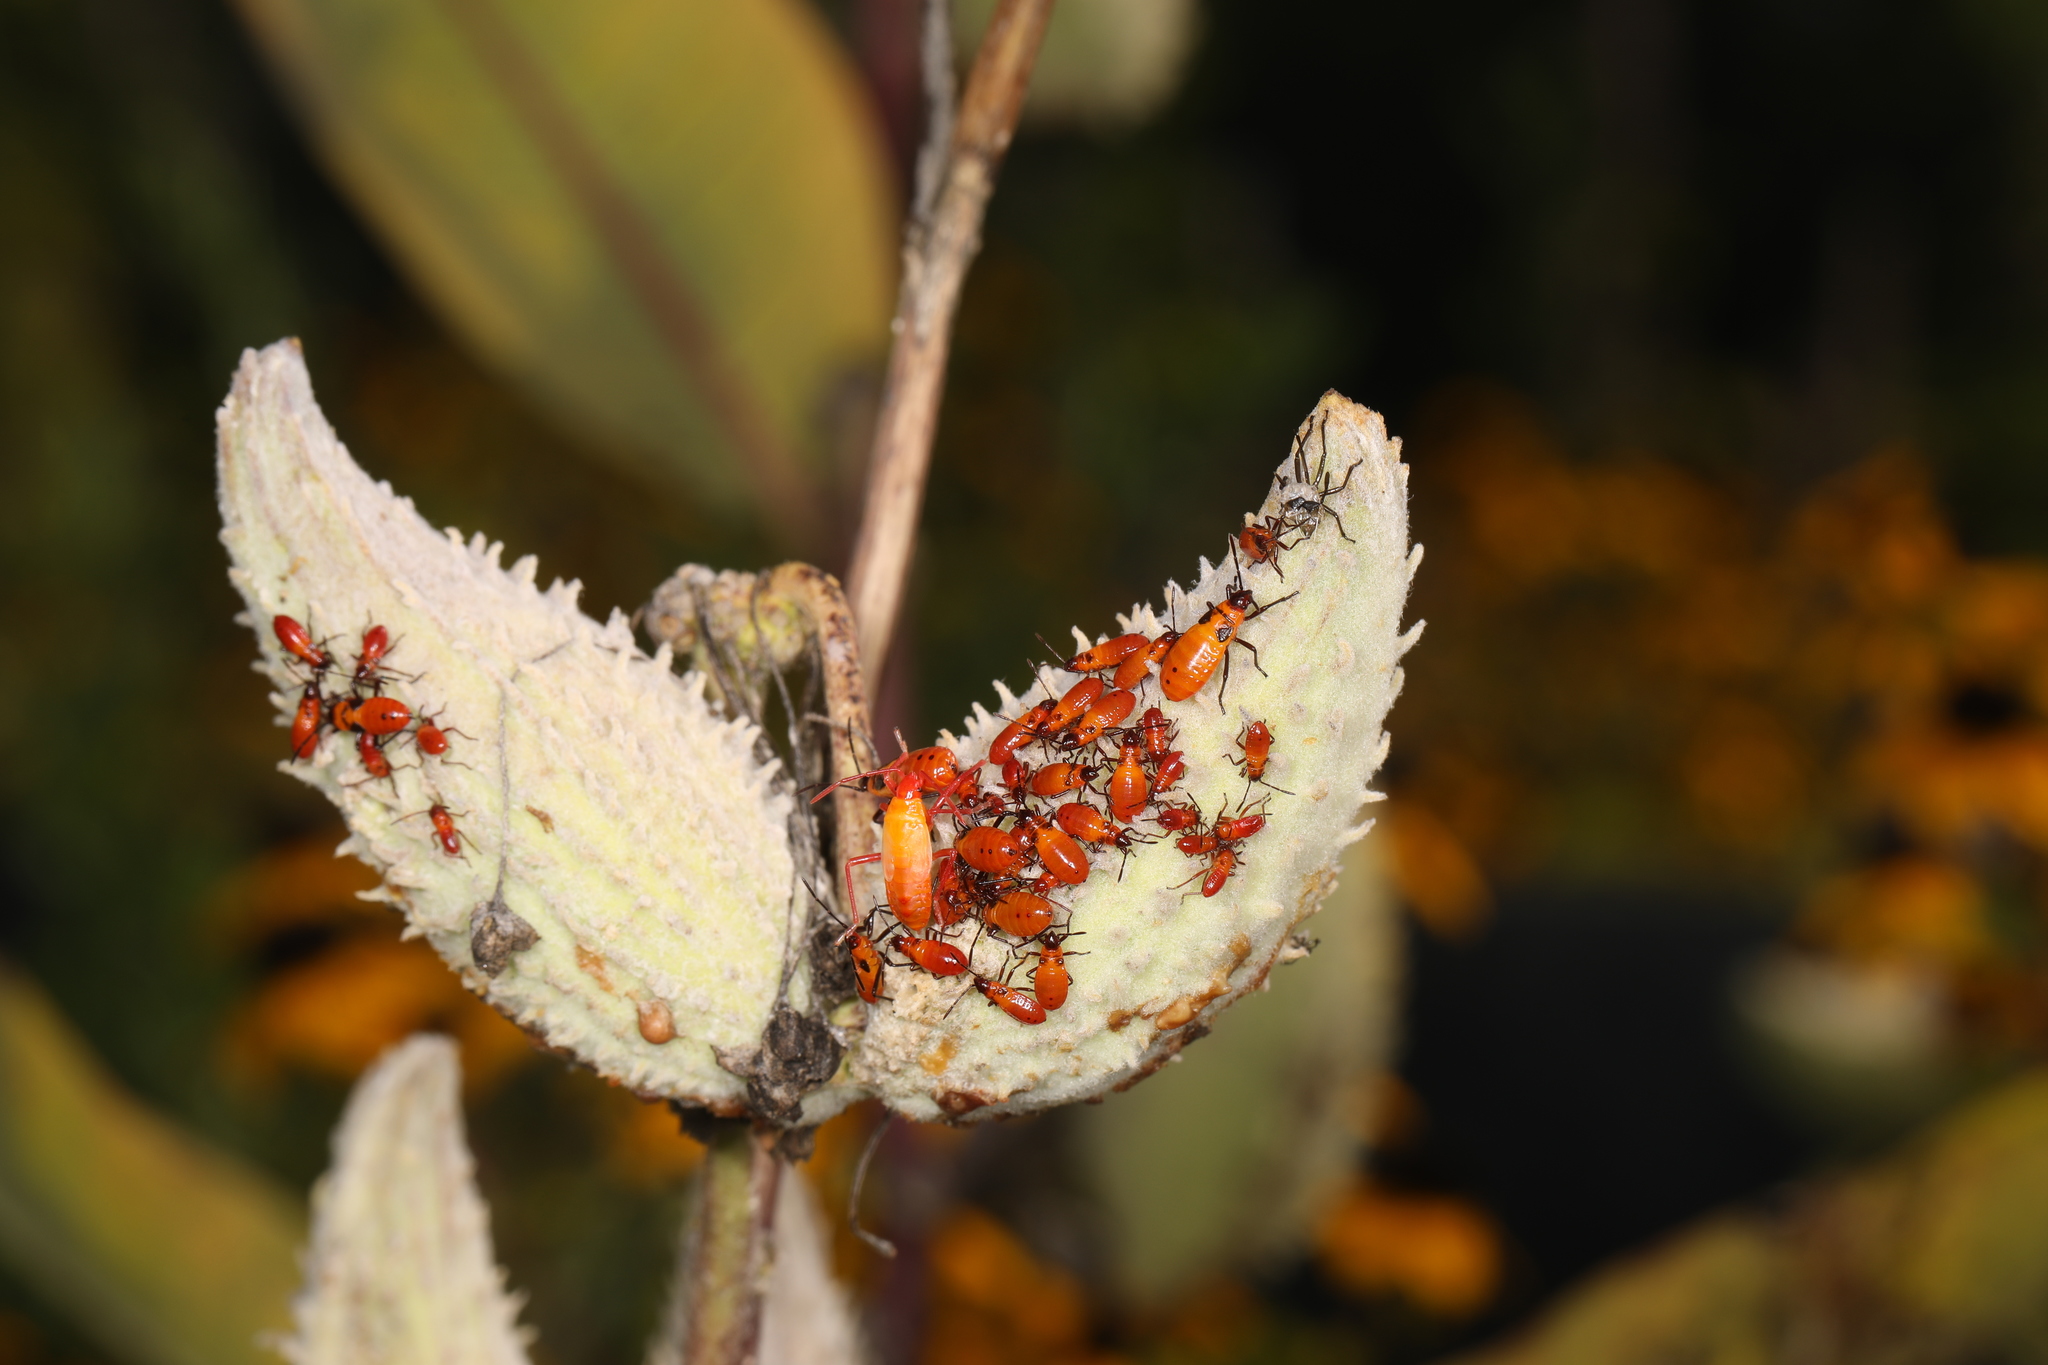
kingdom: Animalia
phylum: Arthropoda
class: Insecta
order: Hemiptera
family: Lygaeidae
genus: Oncopeltus
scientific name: Oncopeltus fasciatus
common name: Large milkweed bug
